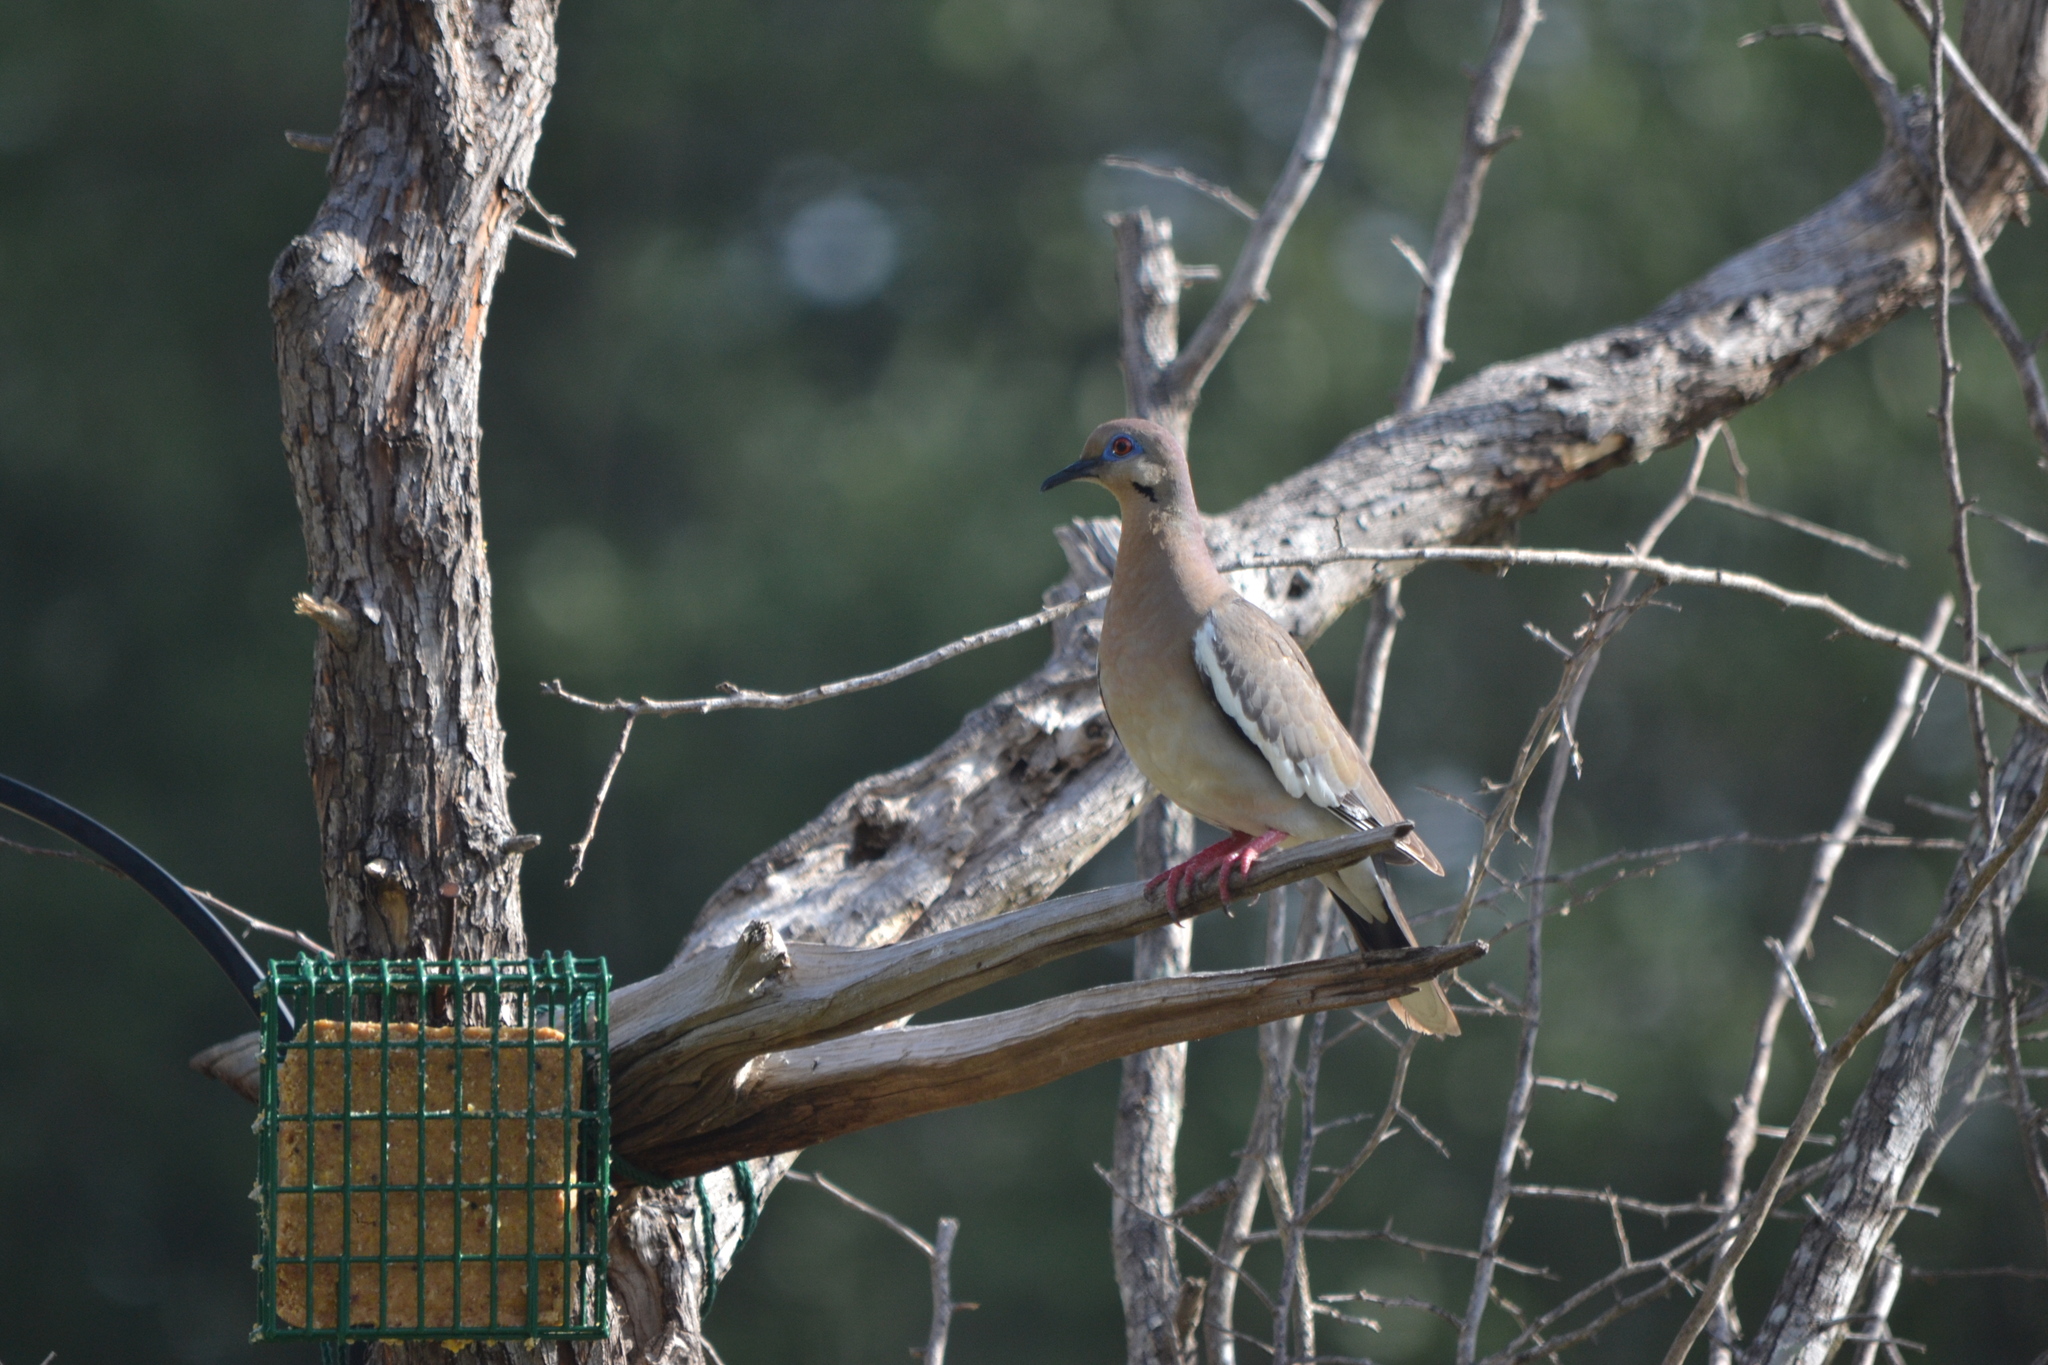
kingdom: Animalia
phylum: Chordata
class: Aves
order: Columbiformes
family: Columbidae
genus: Zenaida
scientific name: Zenaida asiatica
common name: White-winged dove
